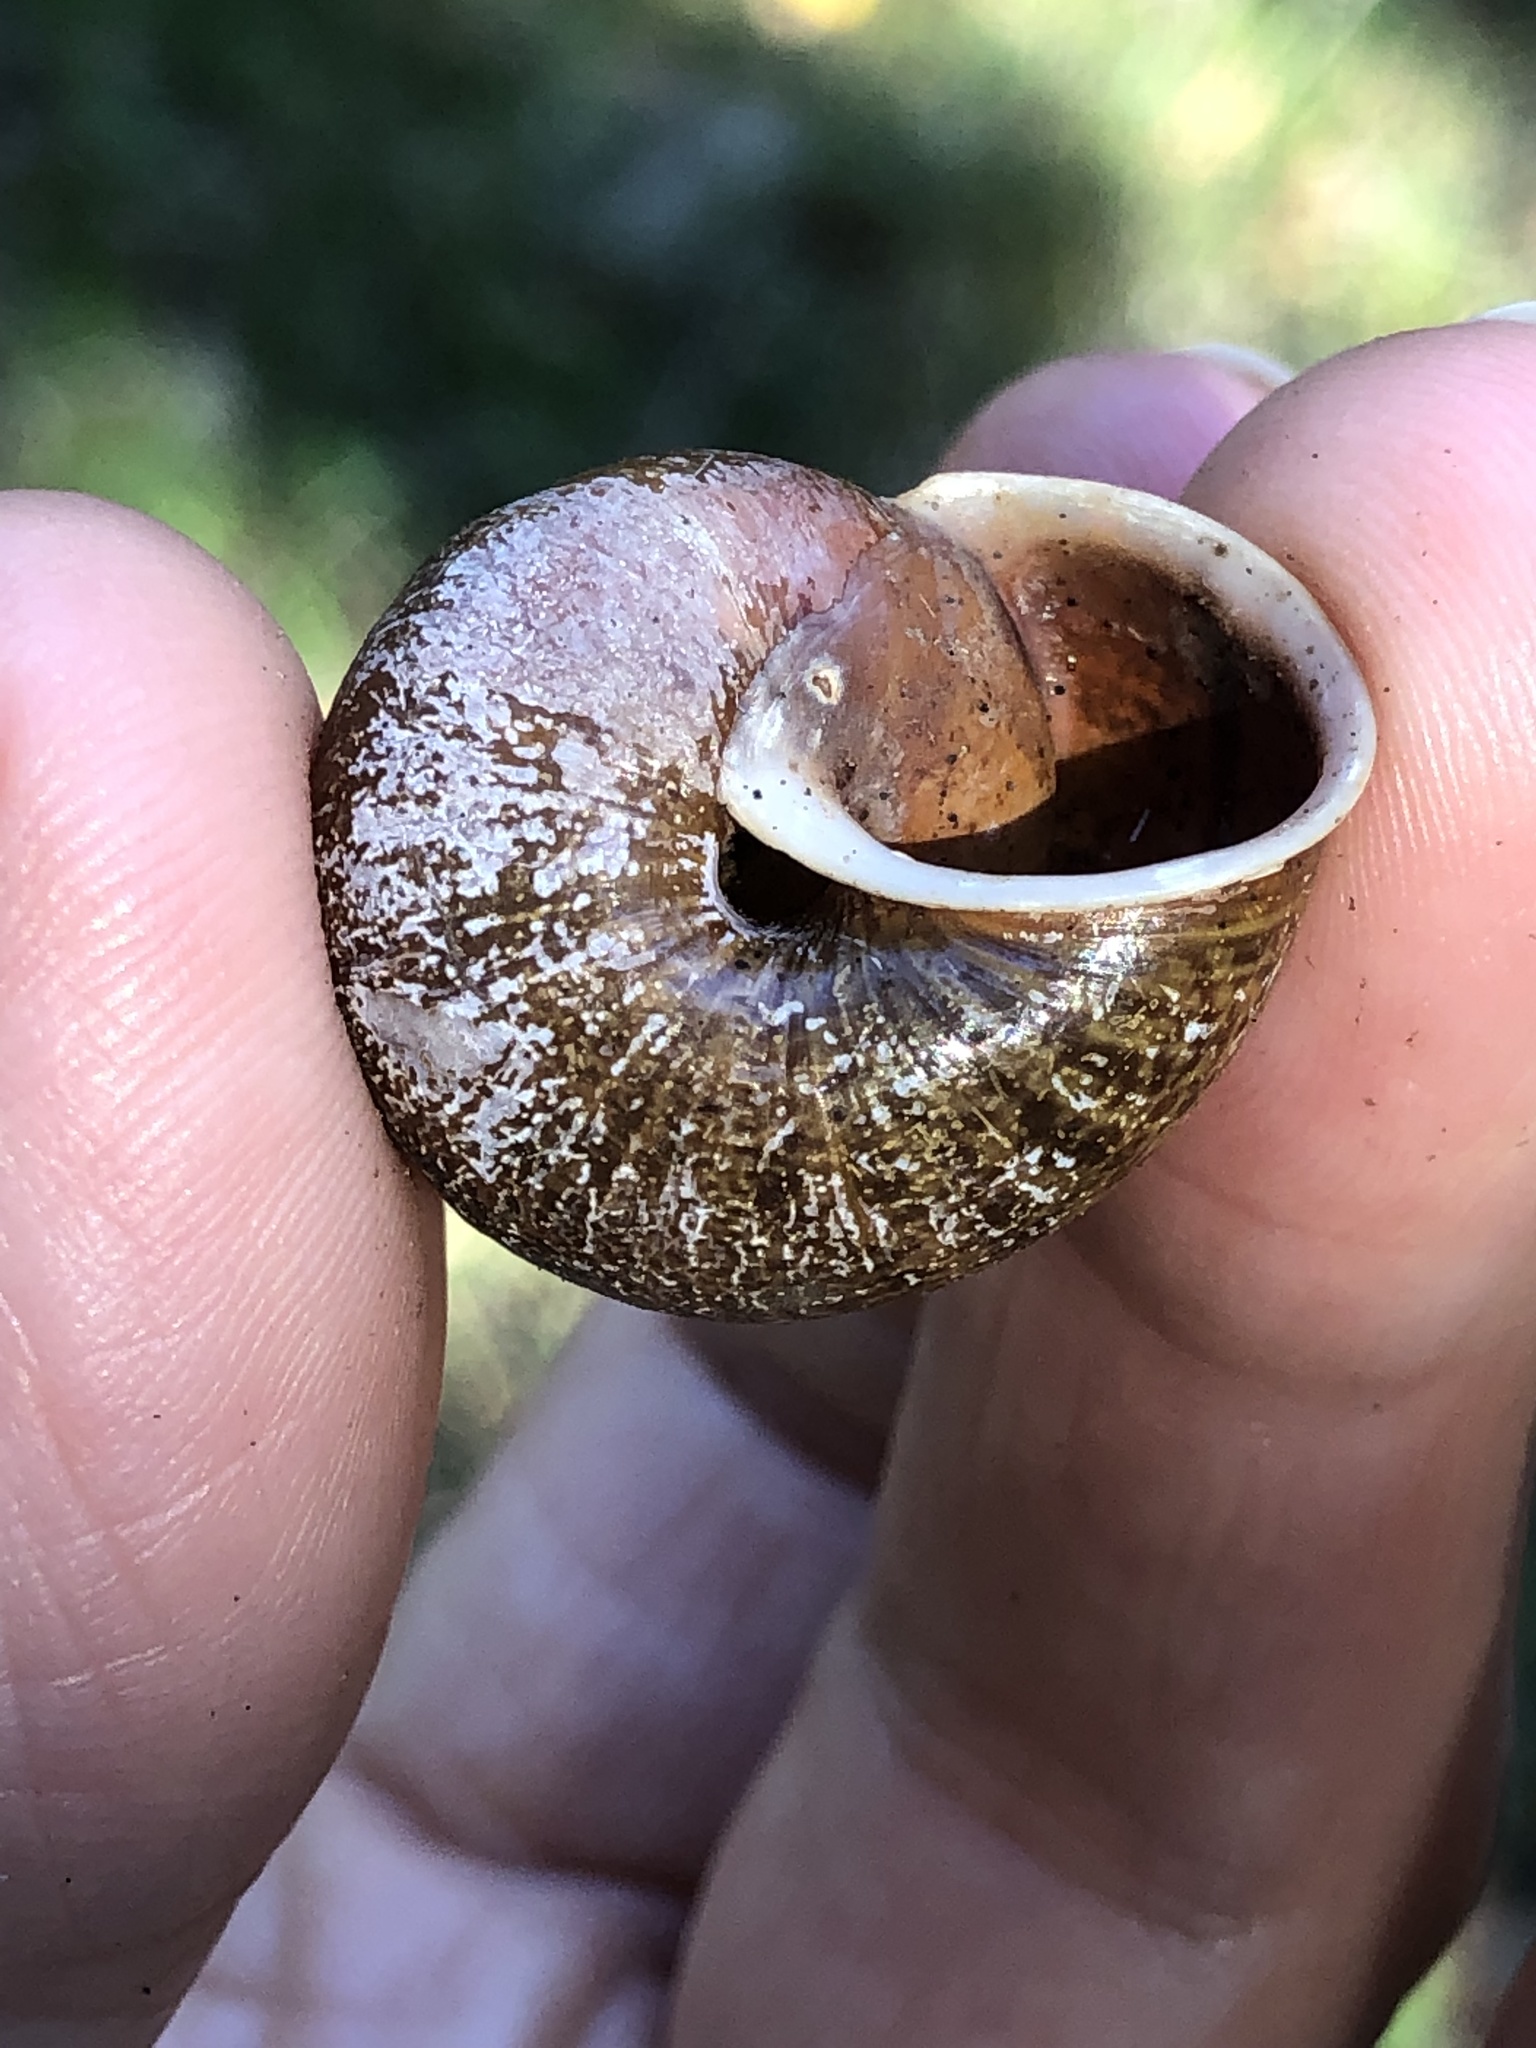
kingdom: Animalia
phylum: Mollusca
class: Gastropoda
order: Stylommatophora
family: Xanthonychidae
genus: Helminthoglypta
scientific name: Helminthoglypta arrosa
